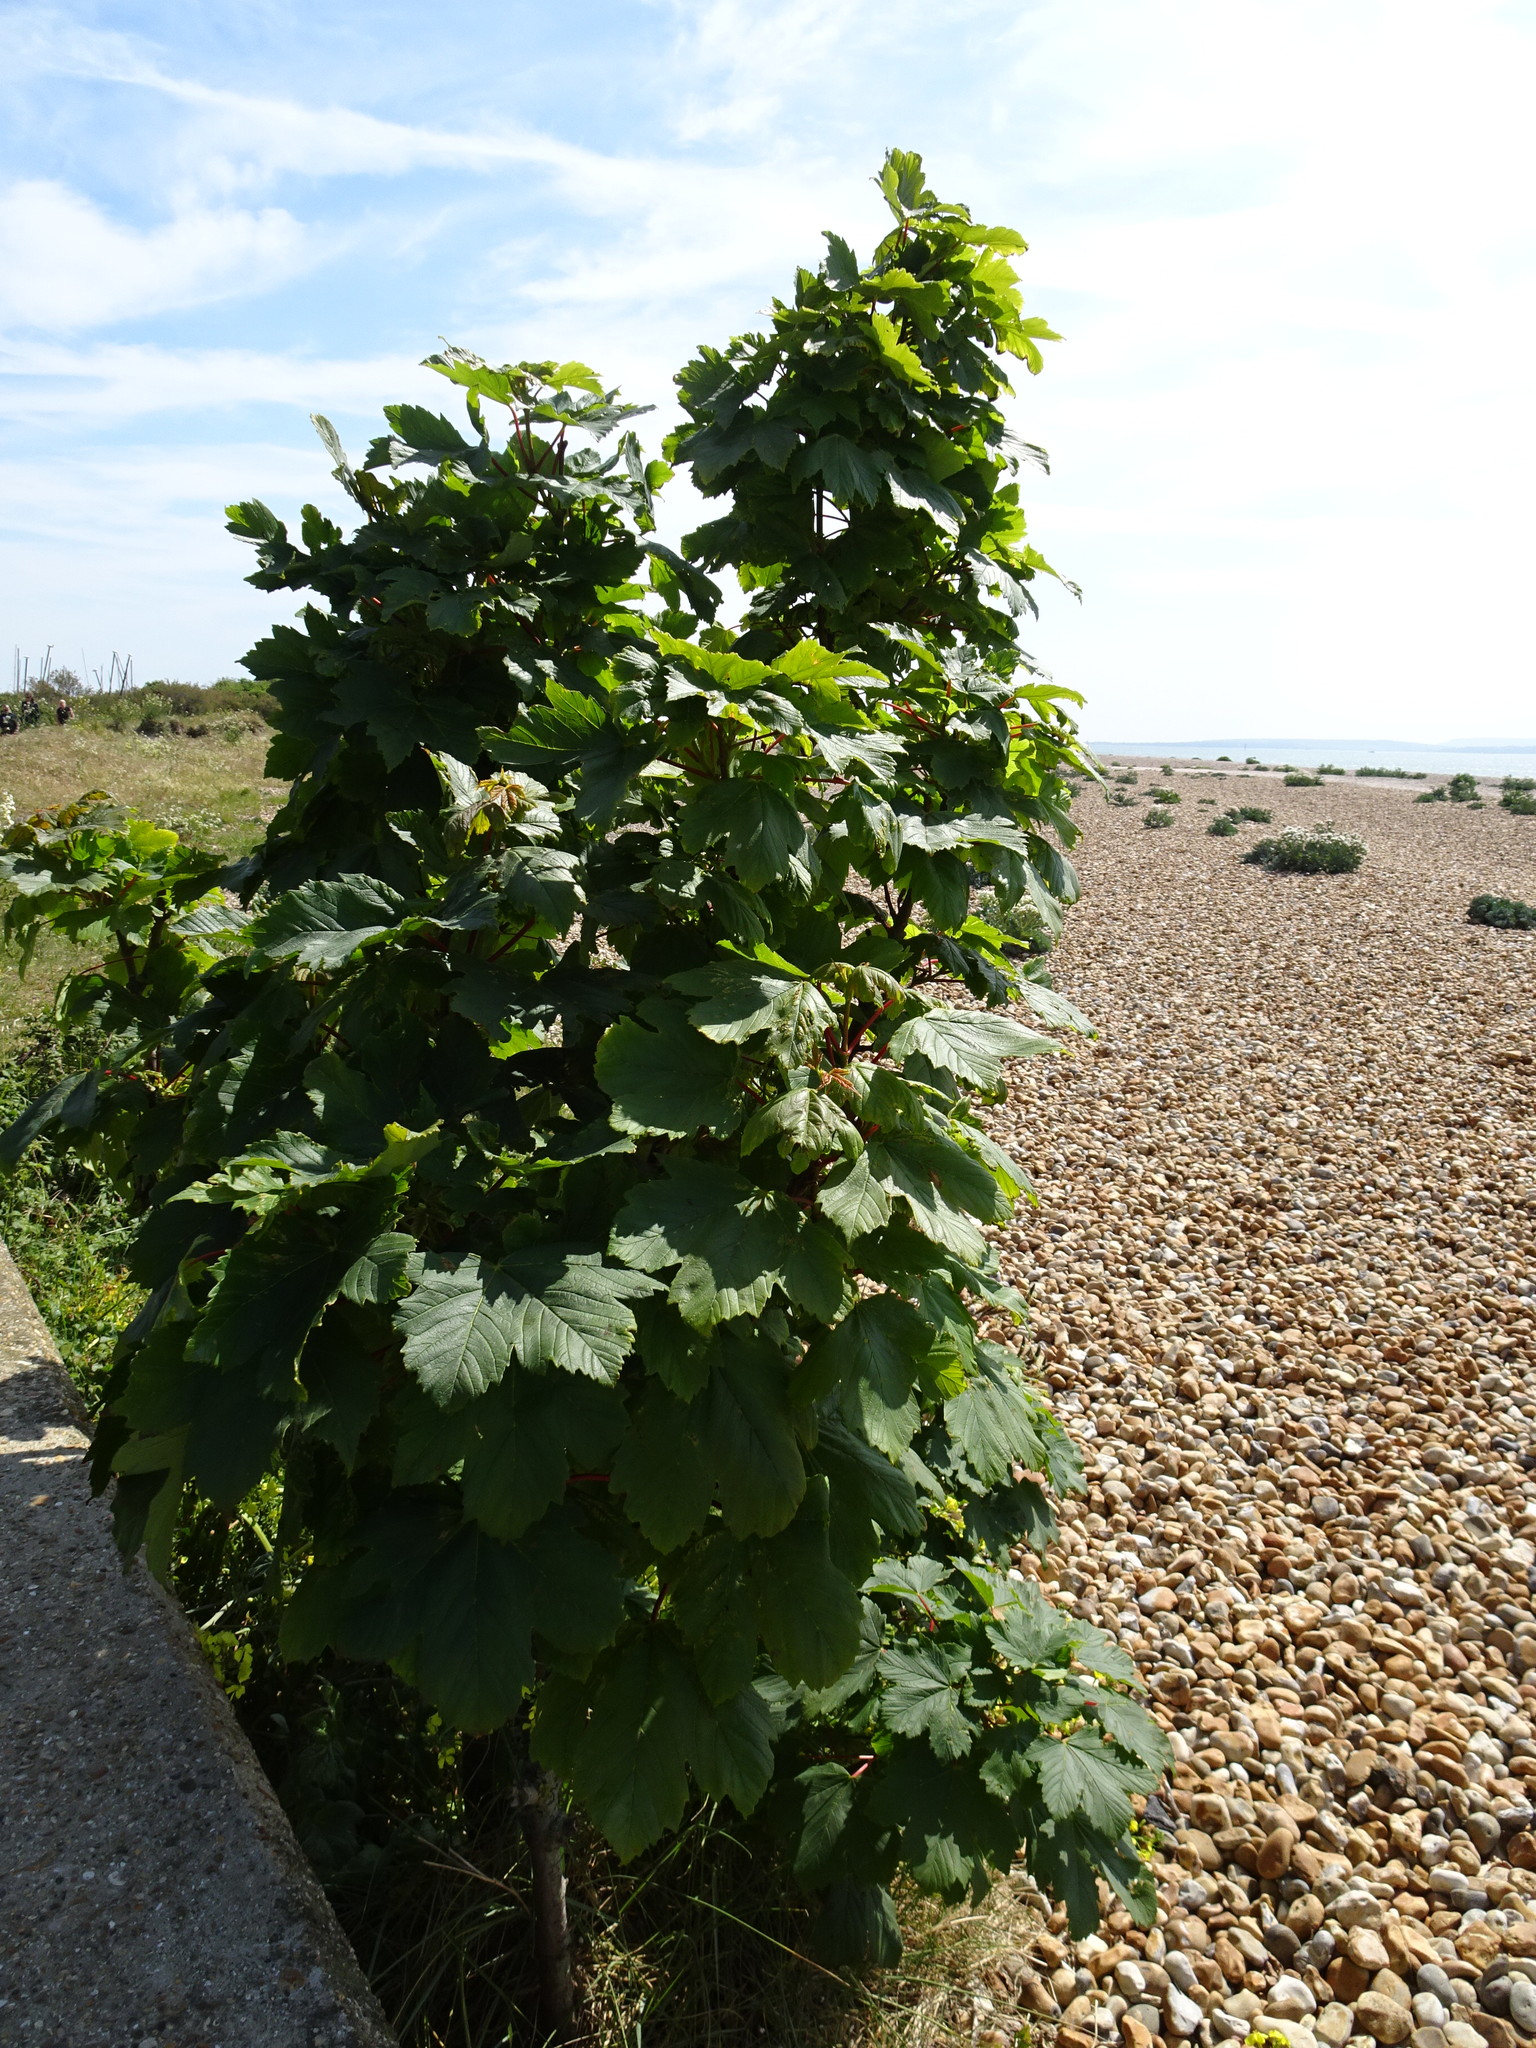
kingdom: Plantae
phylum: Tracheophyta
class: Magnoliopsida
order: Sapindales
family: Sapindaceae
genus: Acer
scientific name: Acer pseudoplatanus
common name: Sycamore
